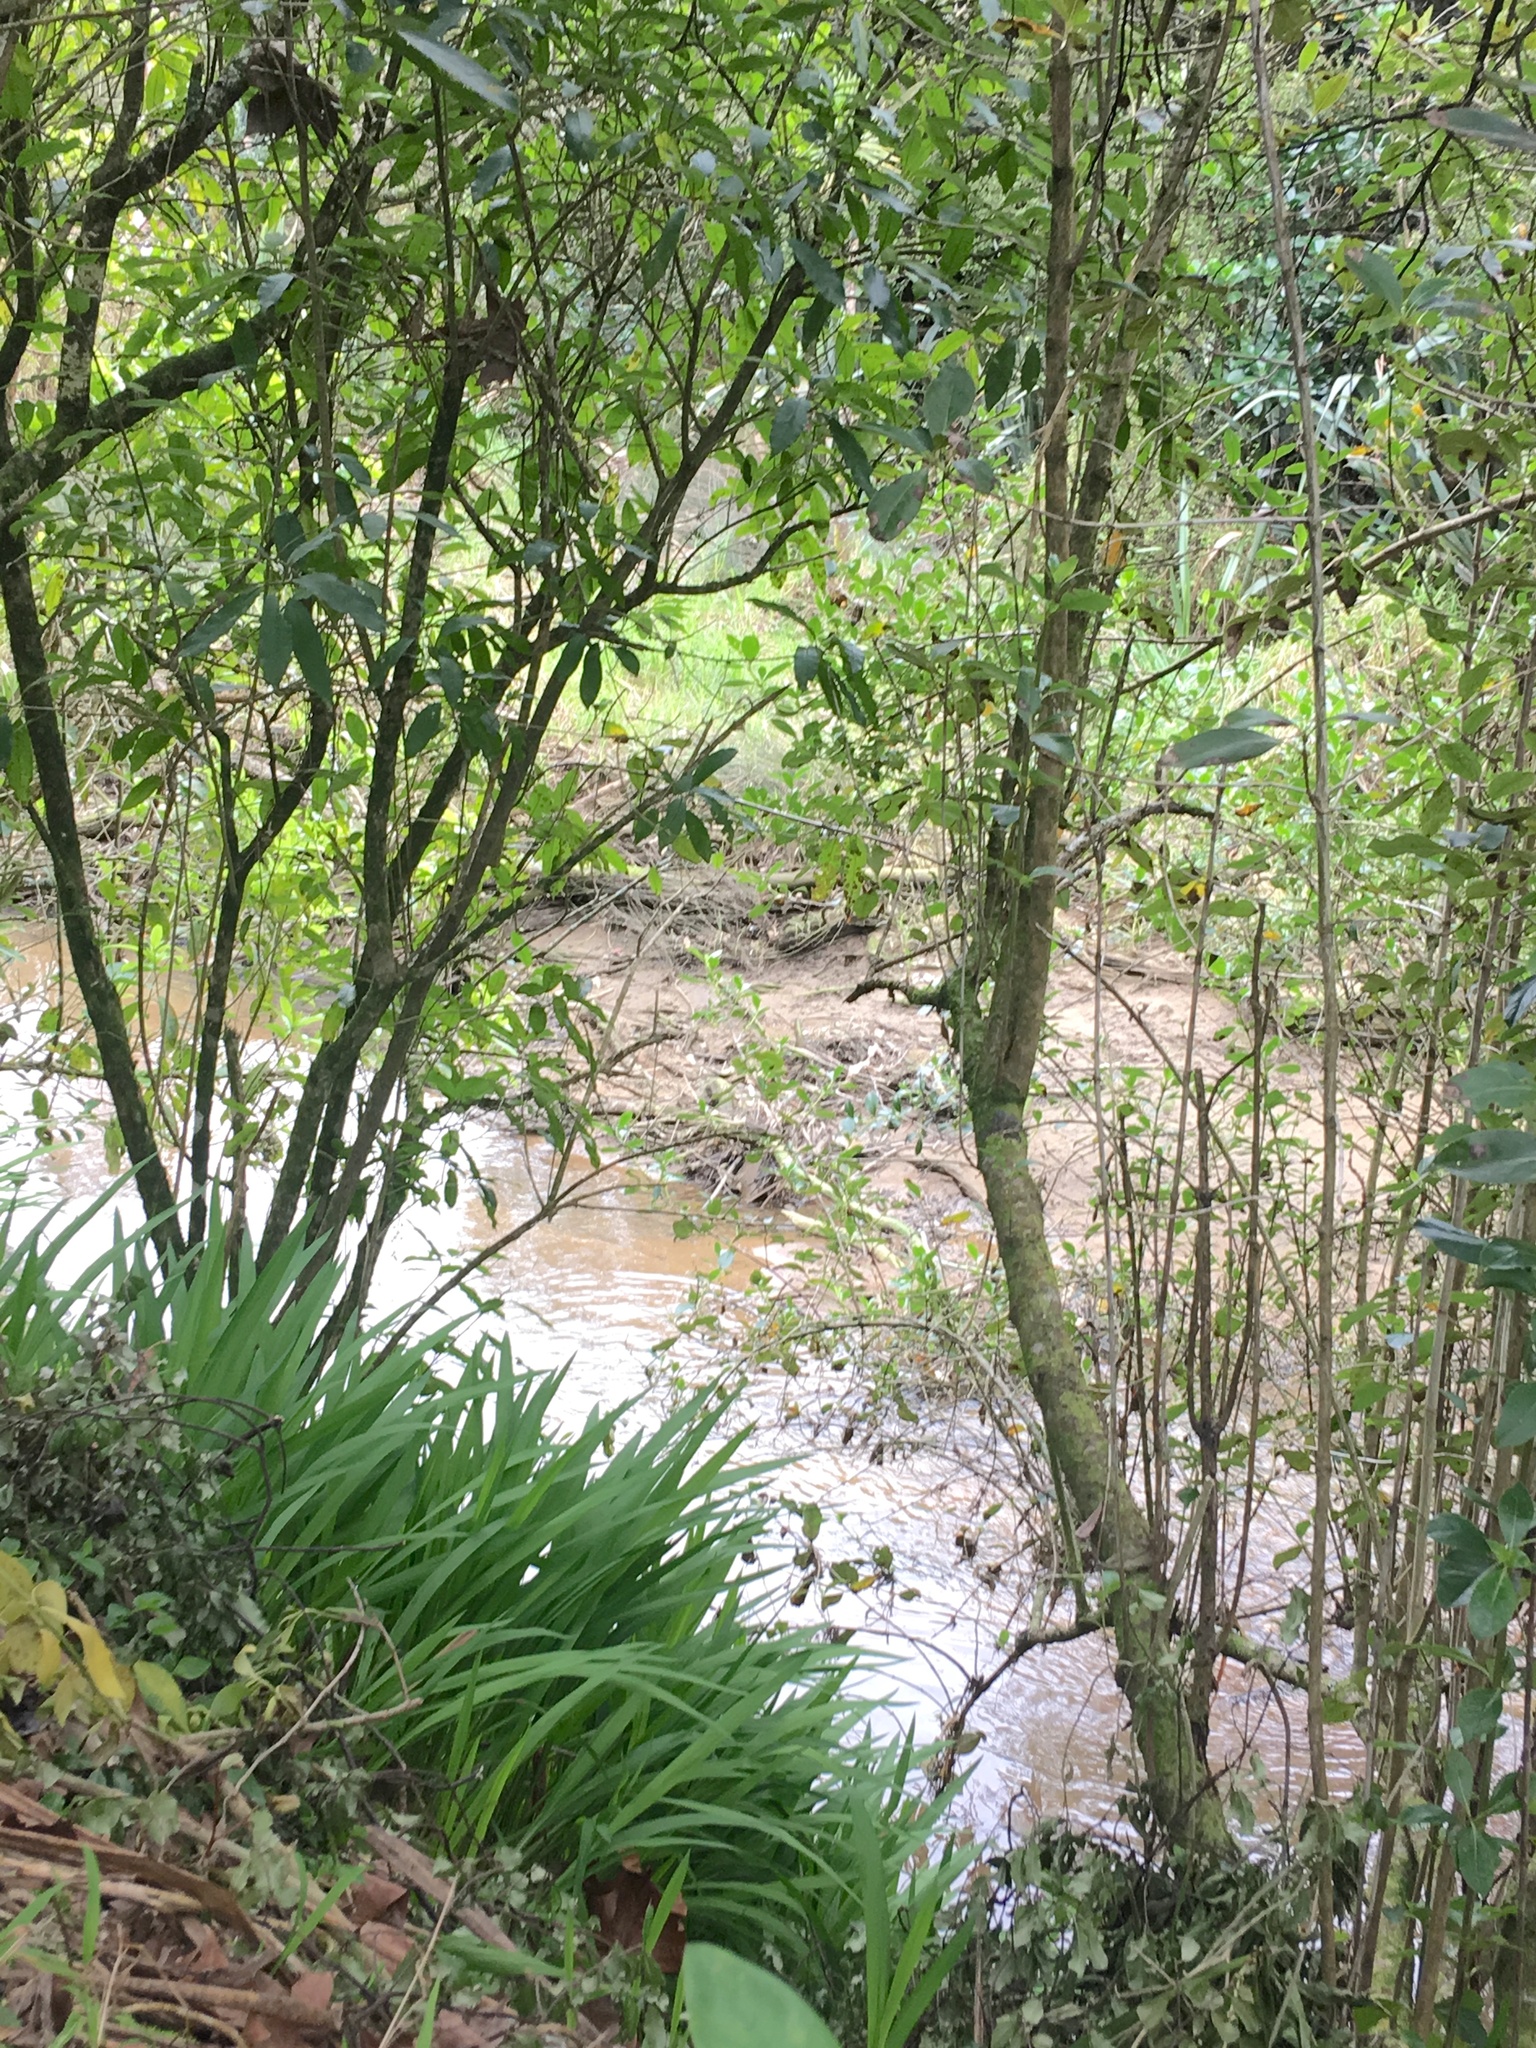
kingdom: Plantae
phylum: Tracheophyta
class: Liliopsida
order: Asparagales
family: Iridaceae
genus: Crocosmia
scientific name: Crocosmia crocosmiiflora
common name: Montbretia
